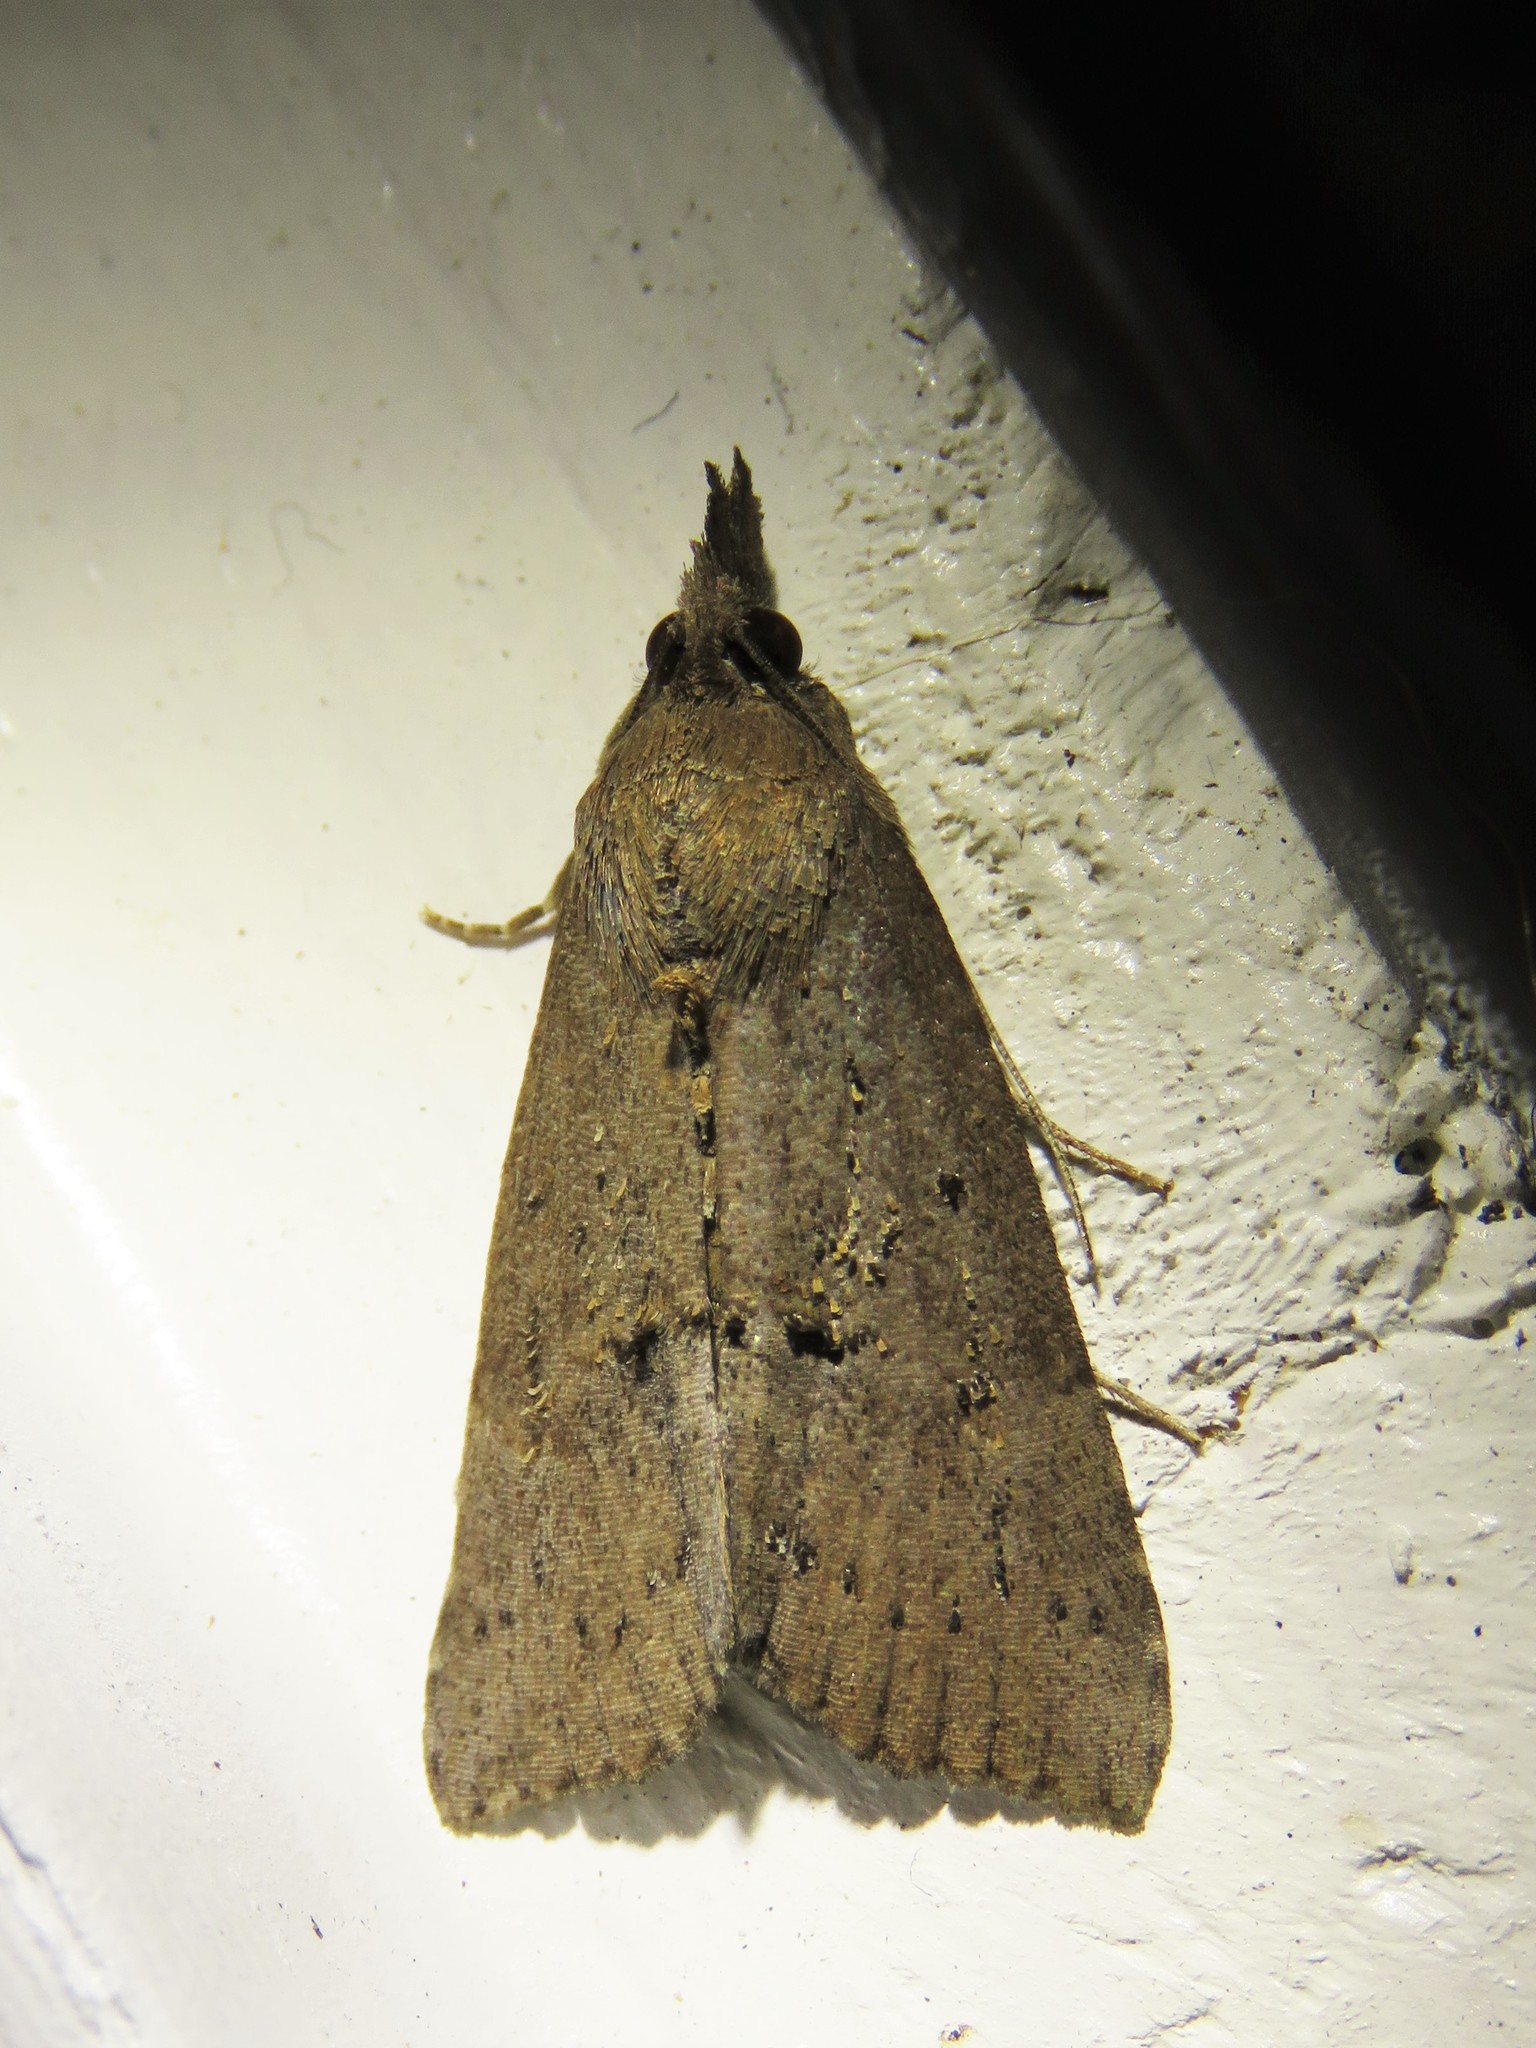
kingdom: Animalia
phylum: Arthropoda
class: Insecta
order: Lepidoptera
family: Erebidae
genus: Hypena
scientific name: Hypena scabra
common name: Green cloverworm
